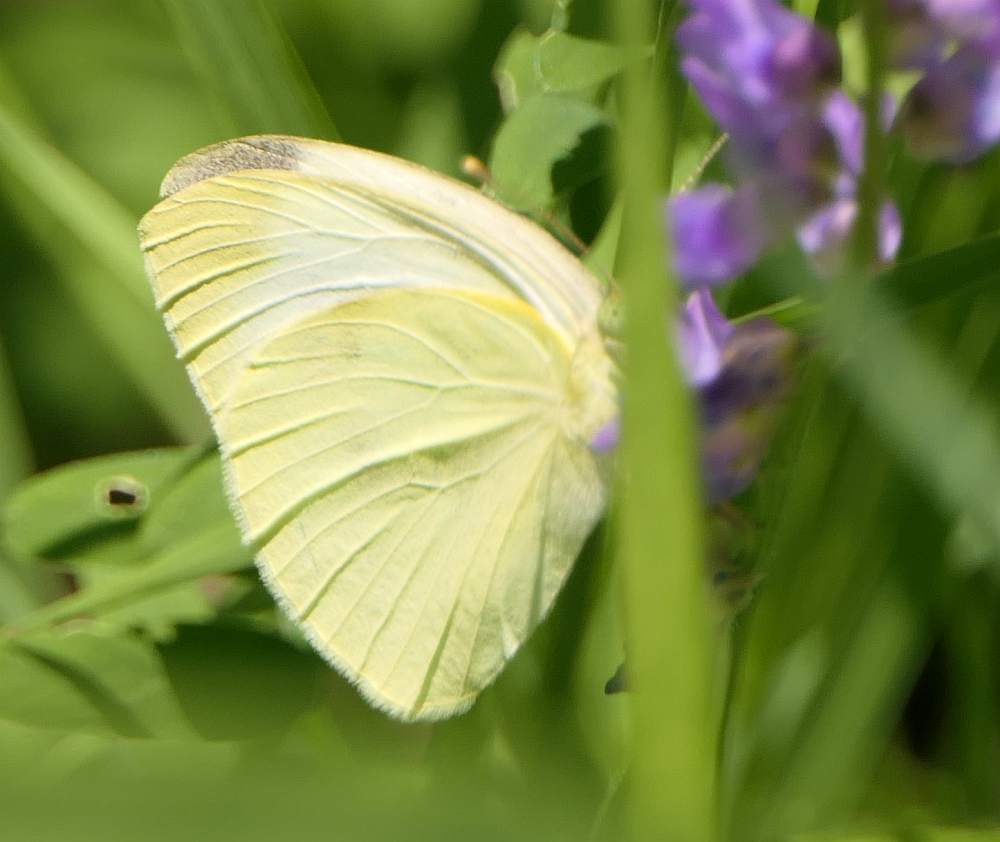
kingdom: Animalia
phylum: Arthropoda
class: Insecta
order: Lepidoptera
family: Pieridae
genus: Pieris
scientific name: Pieris rapae
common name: Small white
